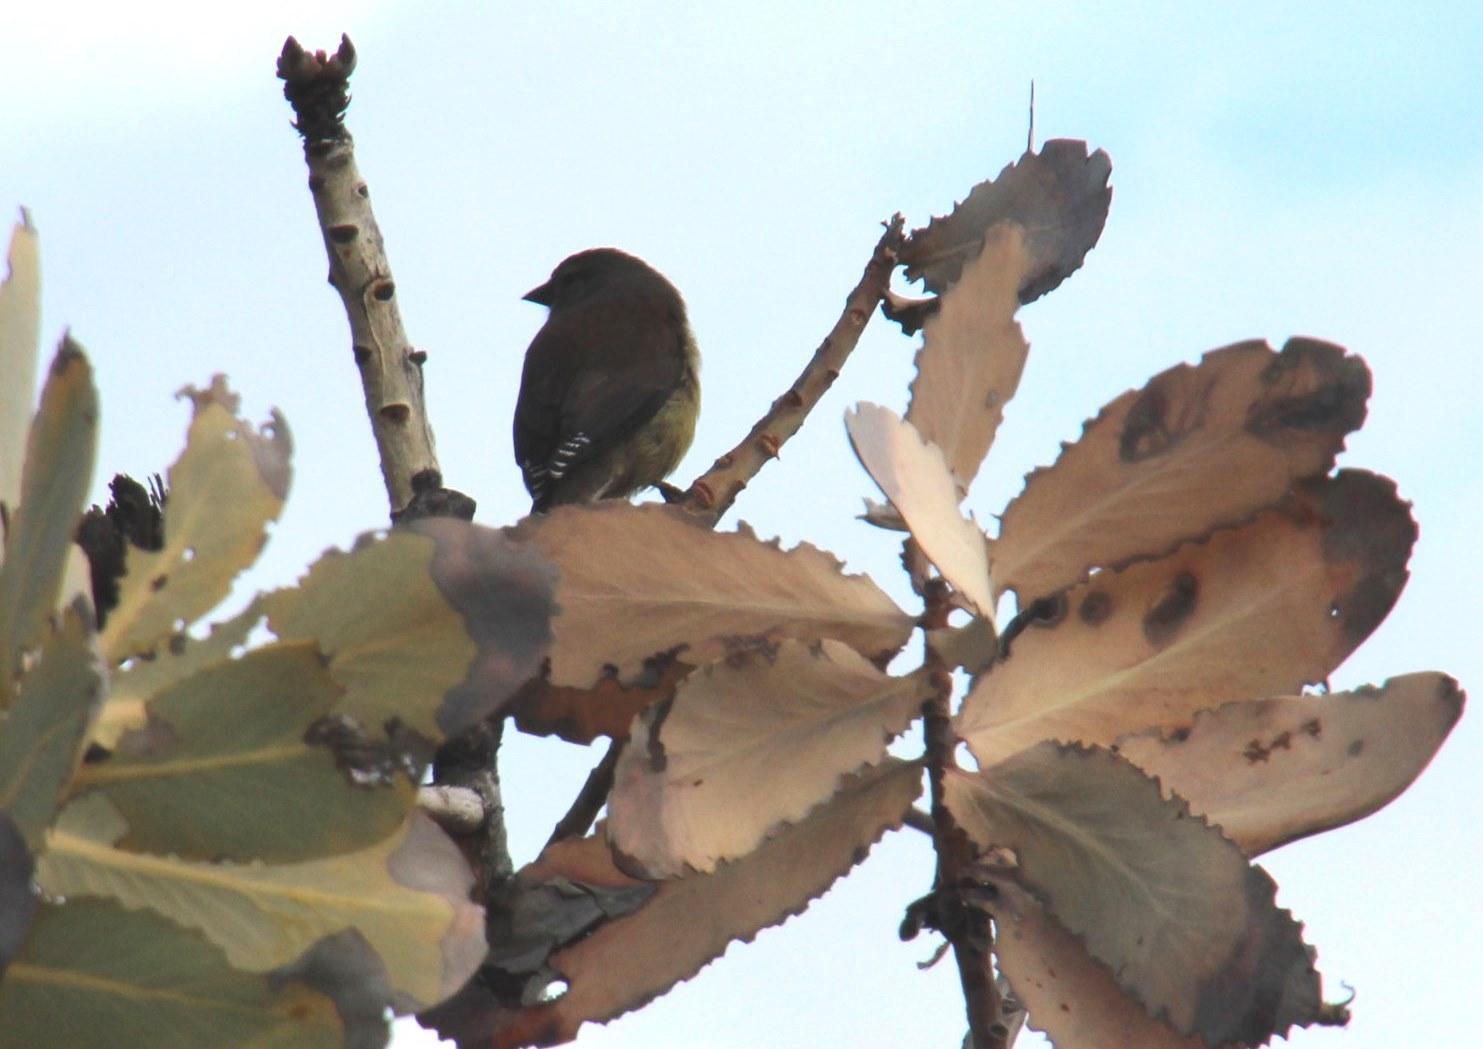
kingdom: Animalia
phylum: Chordata
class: Aves
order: Passeriformes
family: Fringillidae
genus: Crithagra
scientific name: Crithagra totta
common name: Cape siskin
